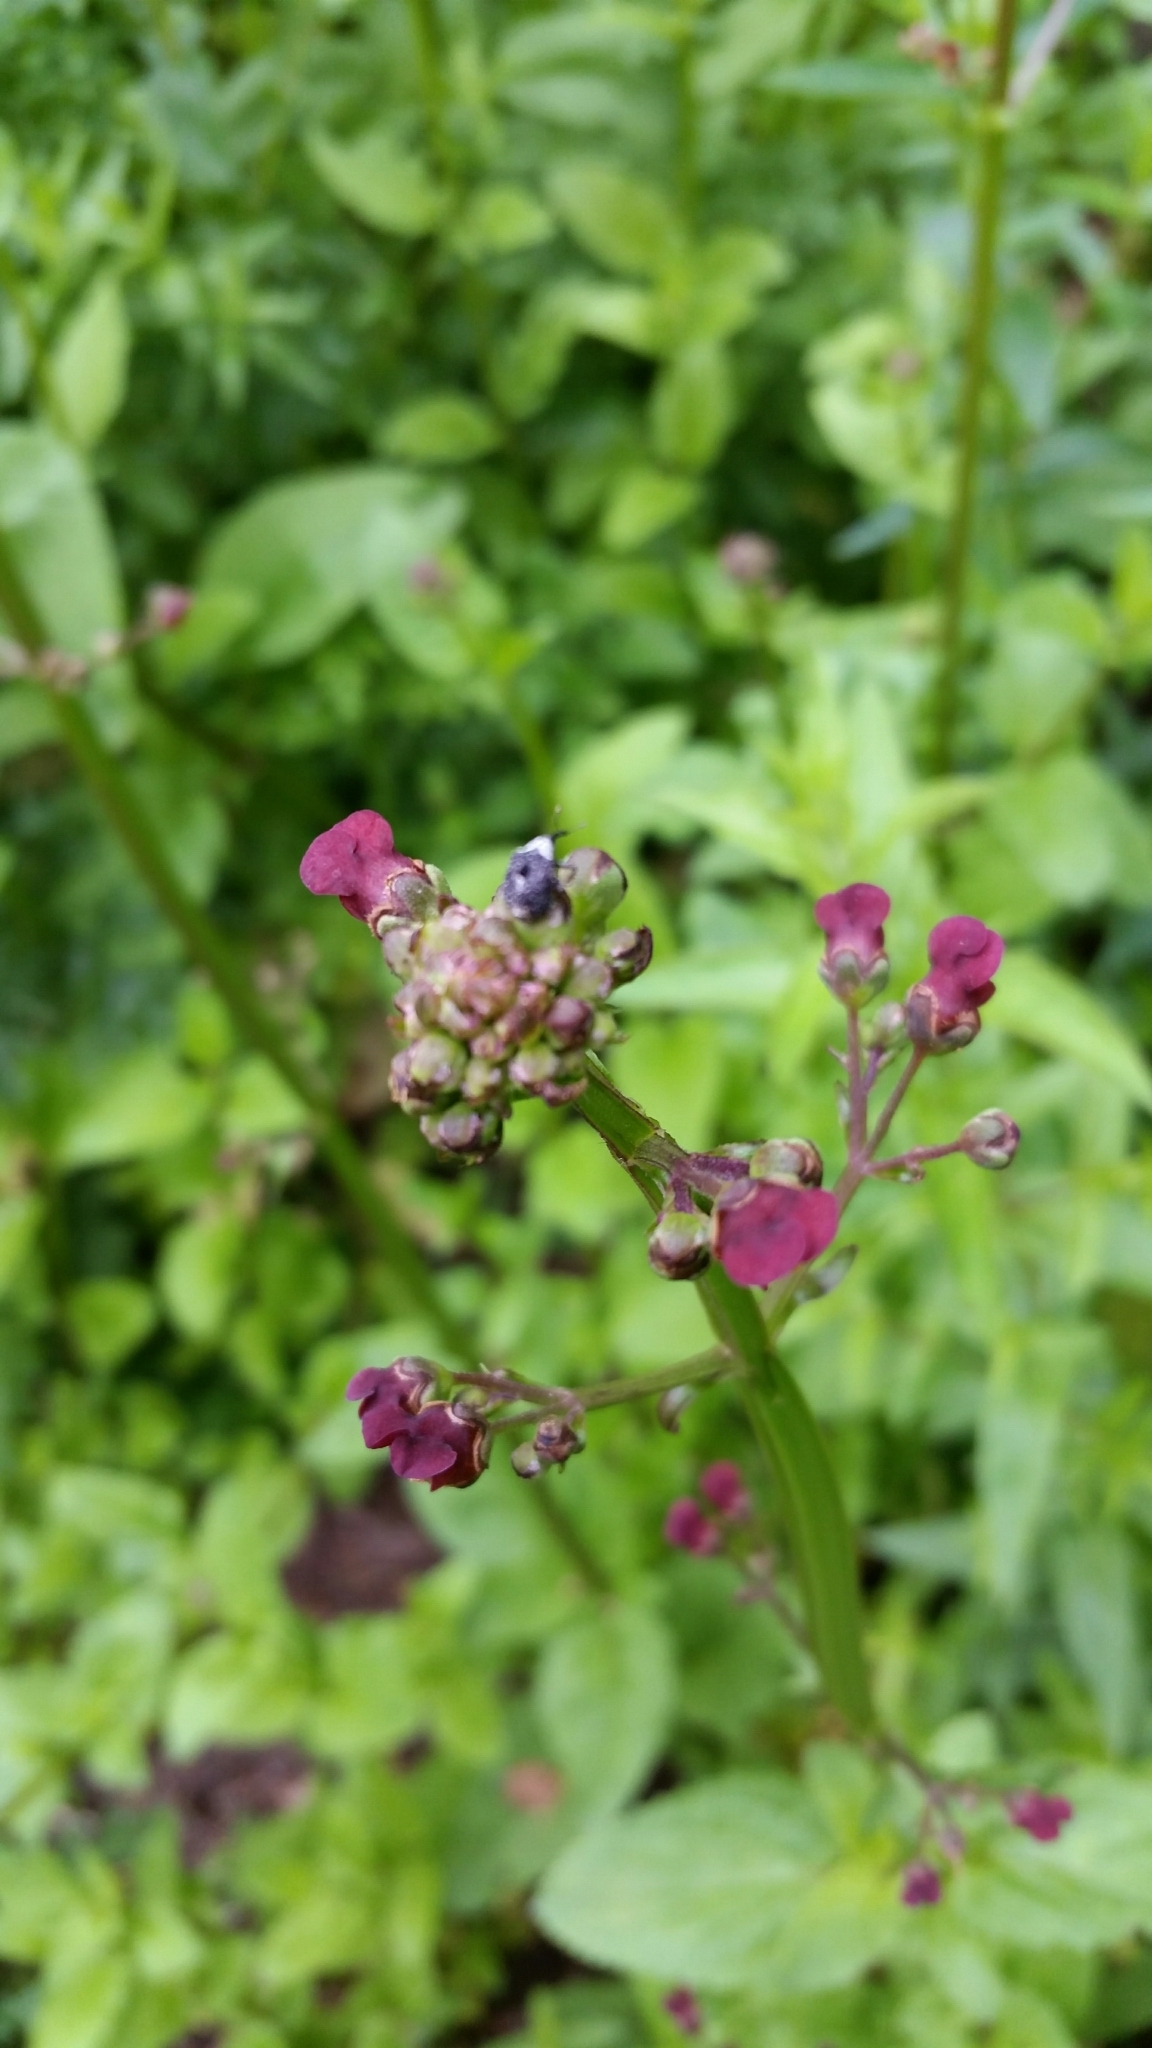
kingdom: Animalia
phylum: Arthropoda
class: Insecta
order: Coleoptera
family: Curculionidae
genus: Cionus
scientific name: Cionus scrophulariae
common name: Common figwort weevil
